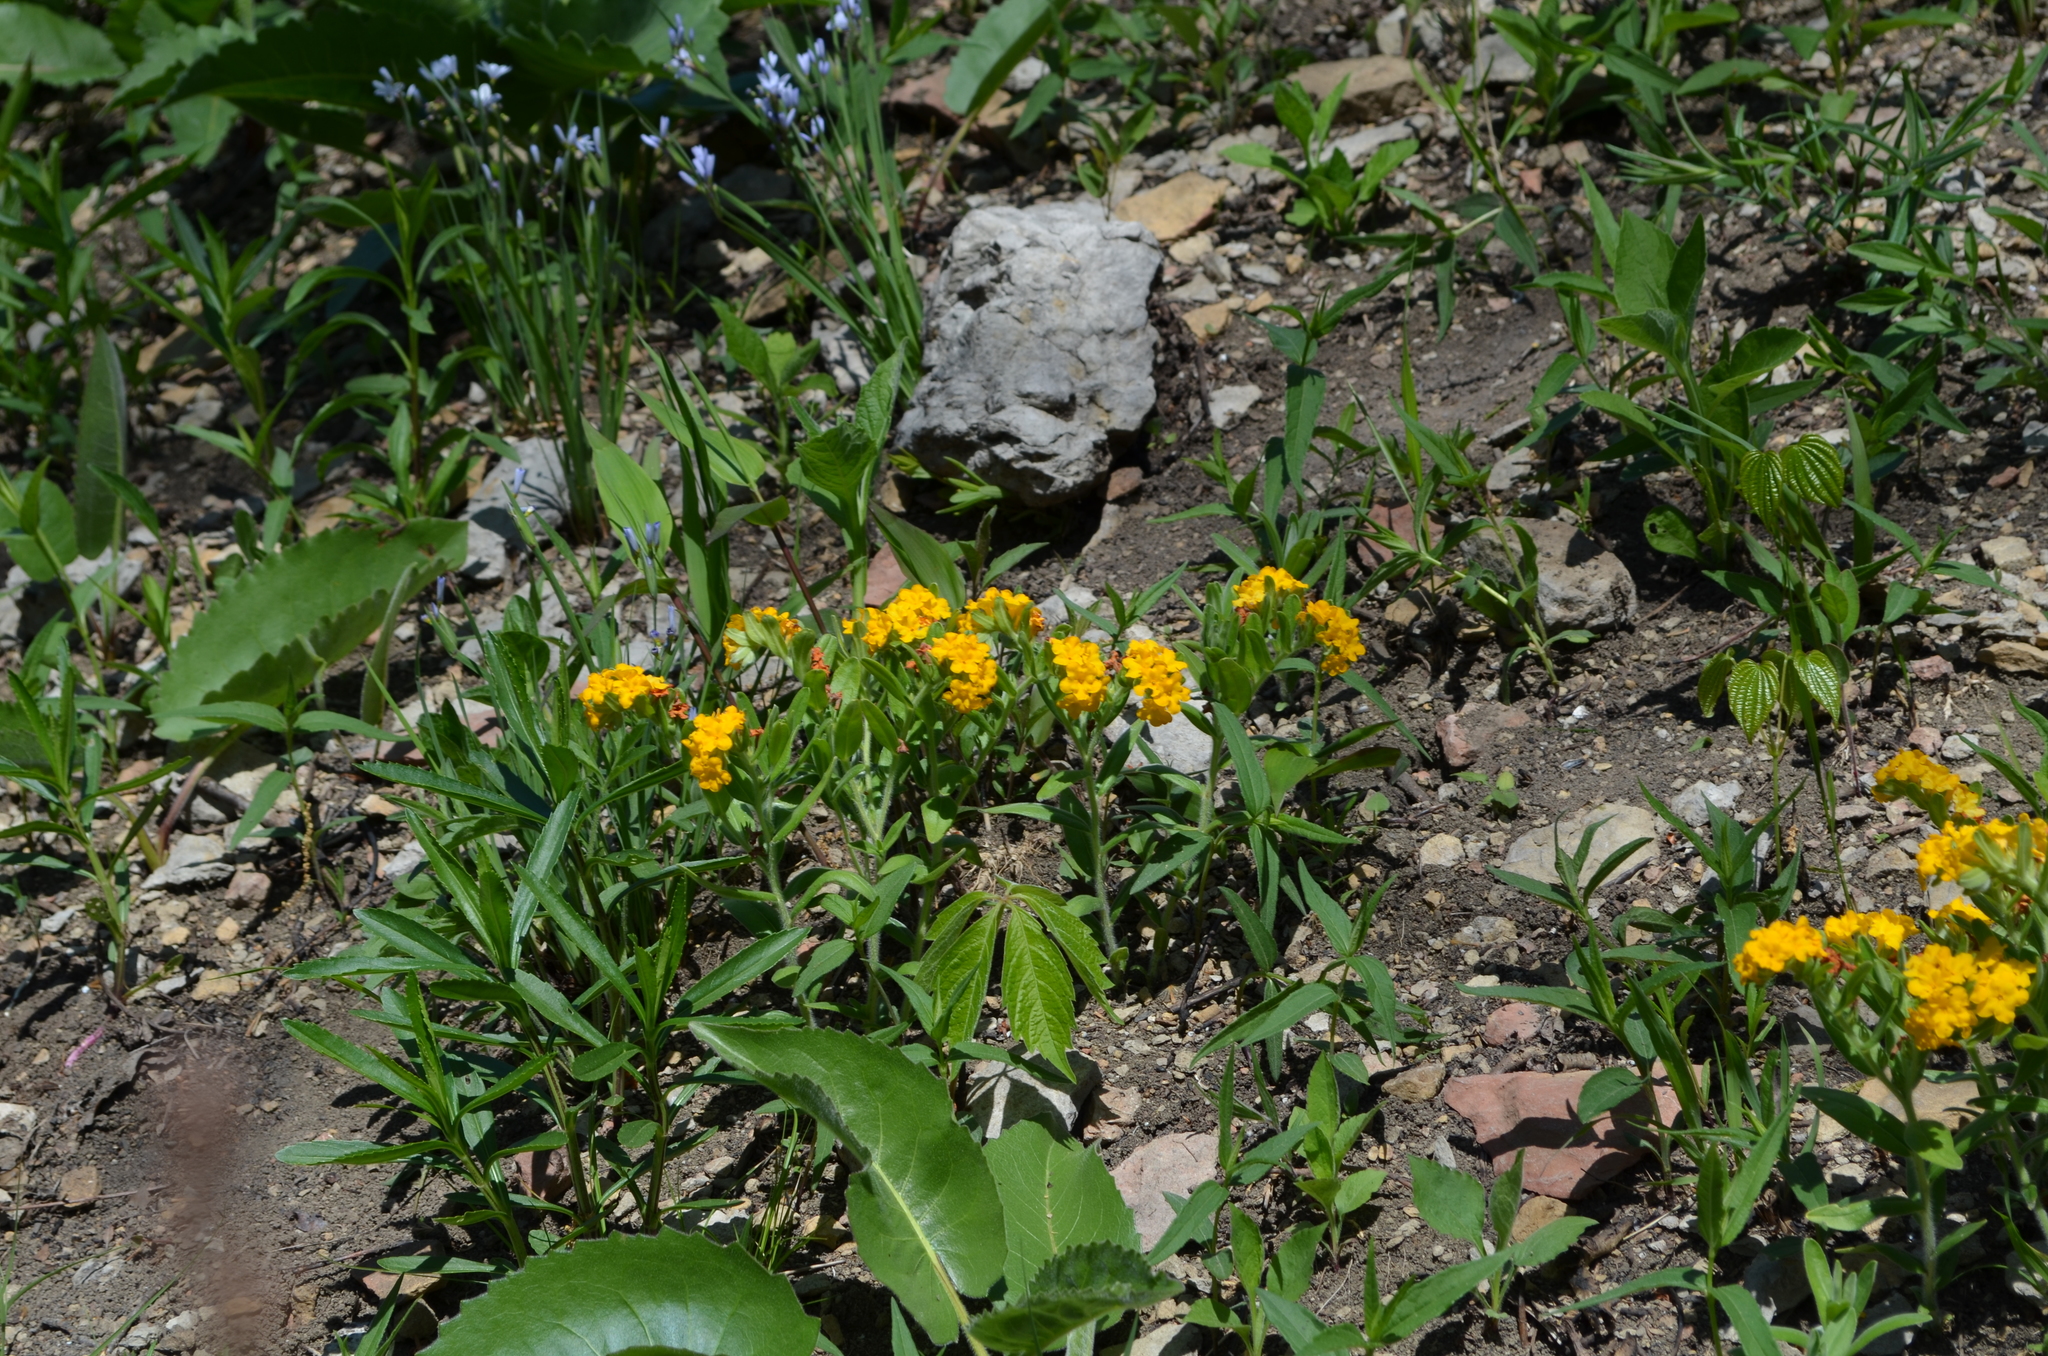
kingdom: Plantae
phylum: Tracheophyta
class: Magnoliopsida
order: Boraginales
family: Boraginaceae
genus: Lithospermum
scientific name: Lithospermum canescens
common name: Hoary puccoon
